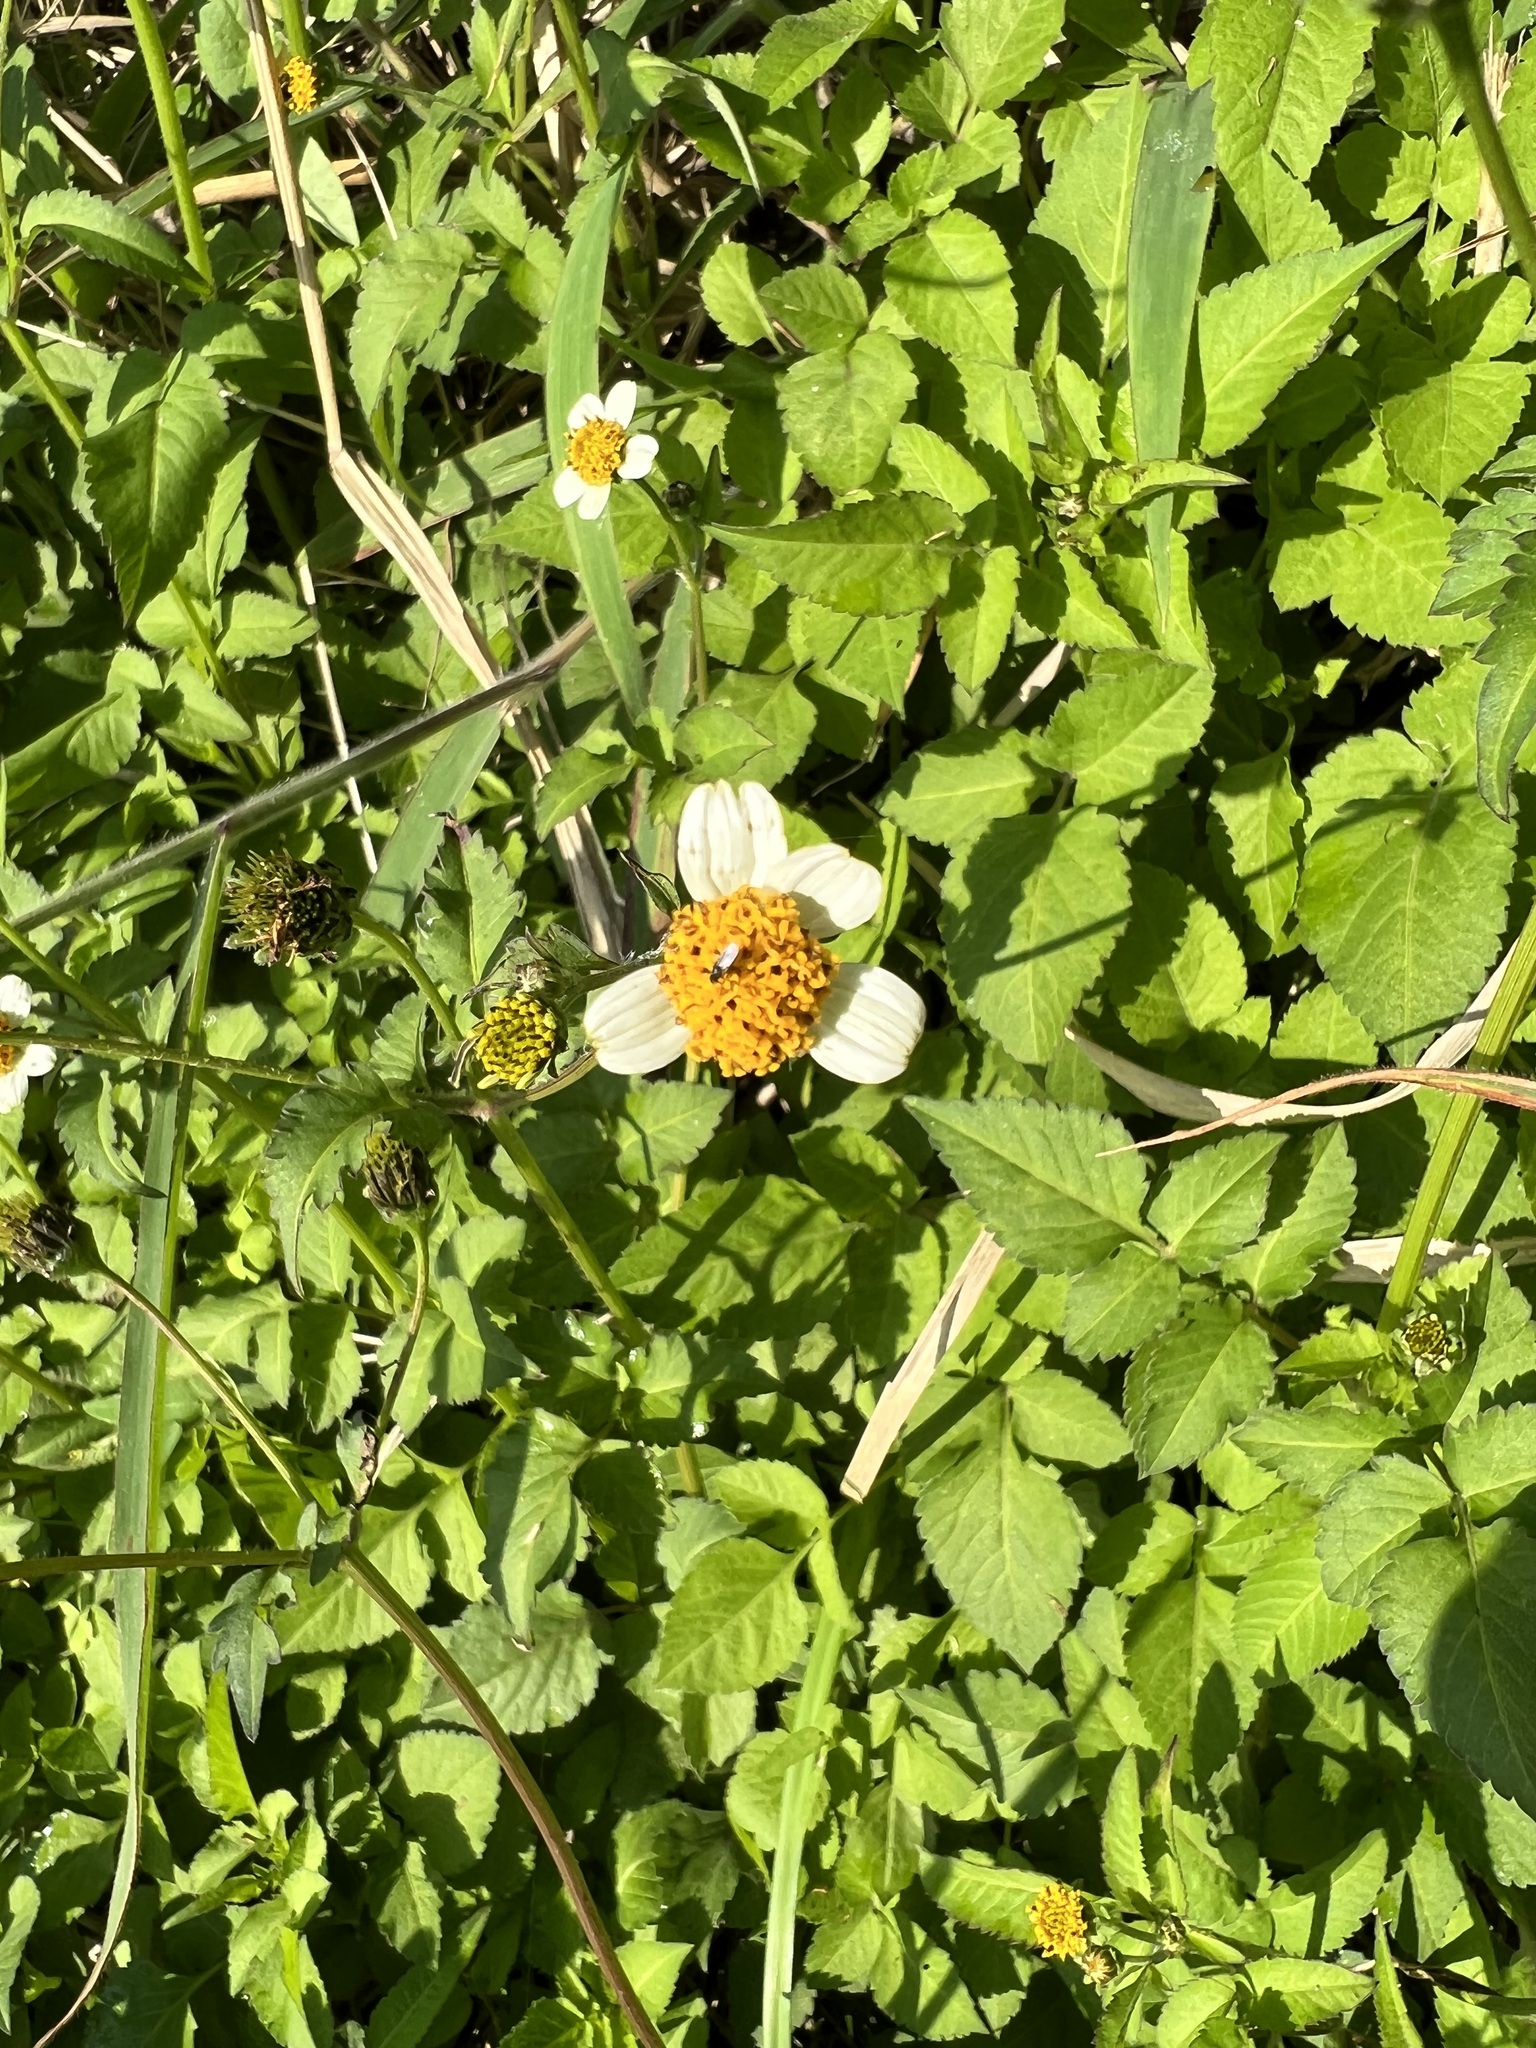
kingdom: Plantae
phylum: Tracheophyta
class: Magnoliopsida
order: Asterales
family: Asteraceae
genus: Bidens
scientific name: Bidens alba
